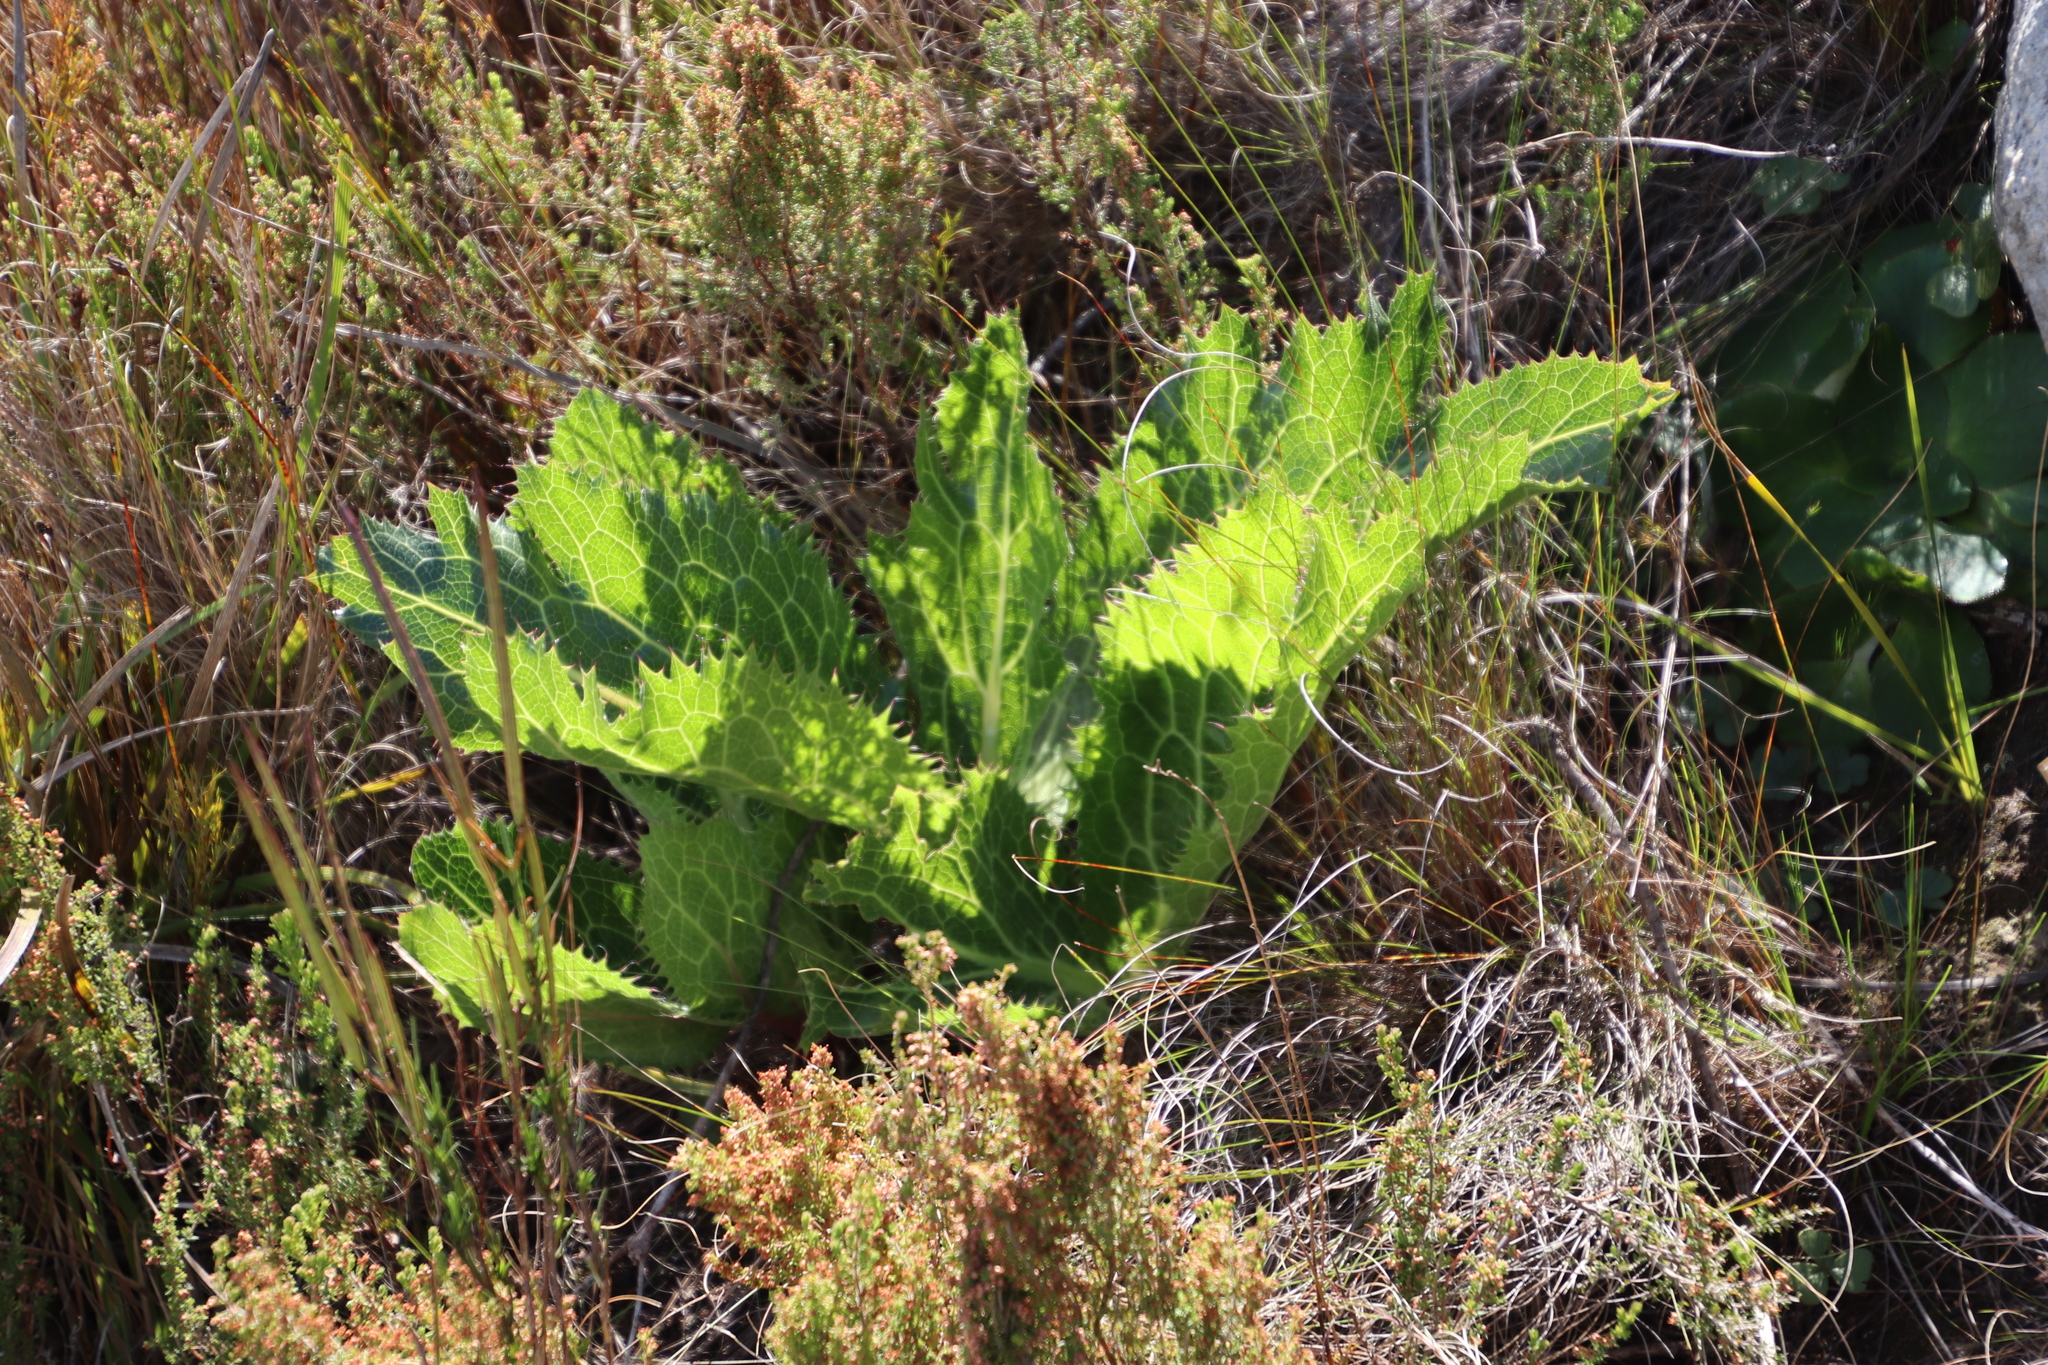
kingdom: Plantae
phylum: Tracheophyta
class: Magnoliopsida
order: Apiales
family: Apiaceae
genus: Lichtensteinia
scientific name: Lichtensteinia lacera
